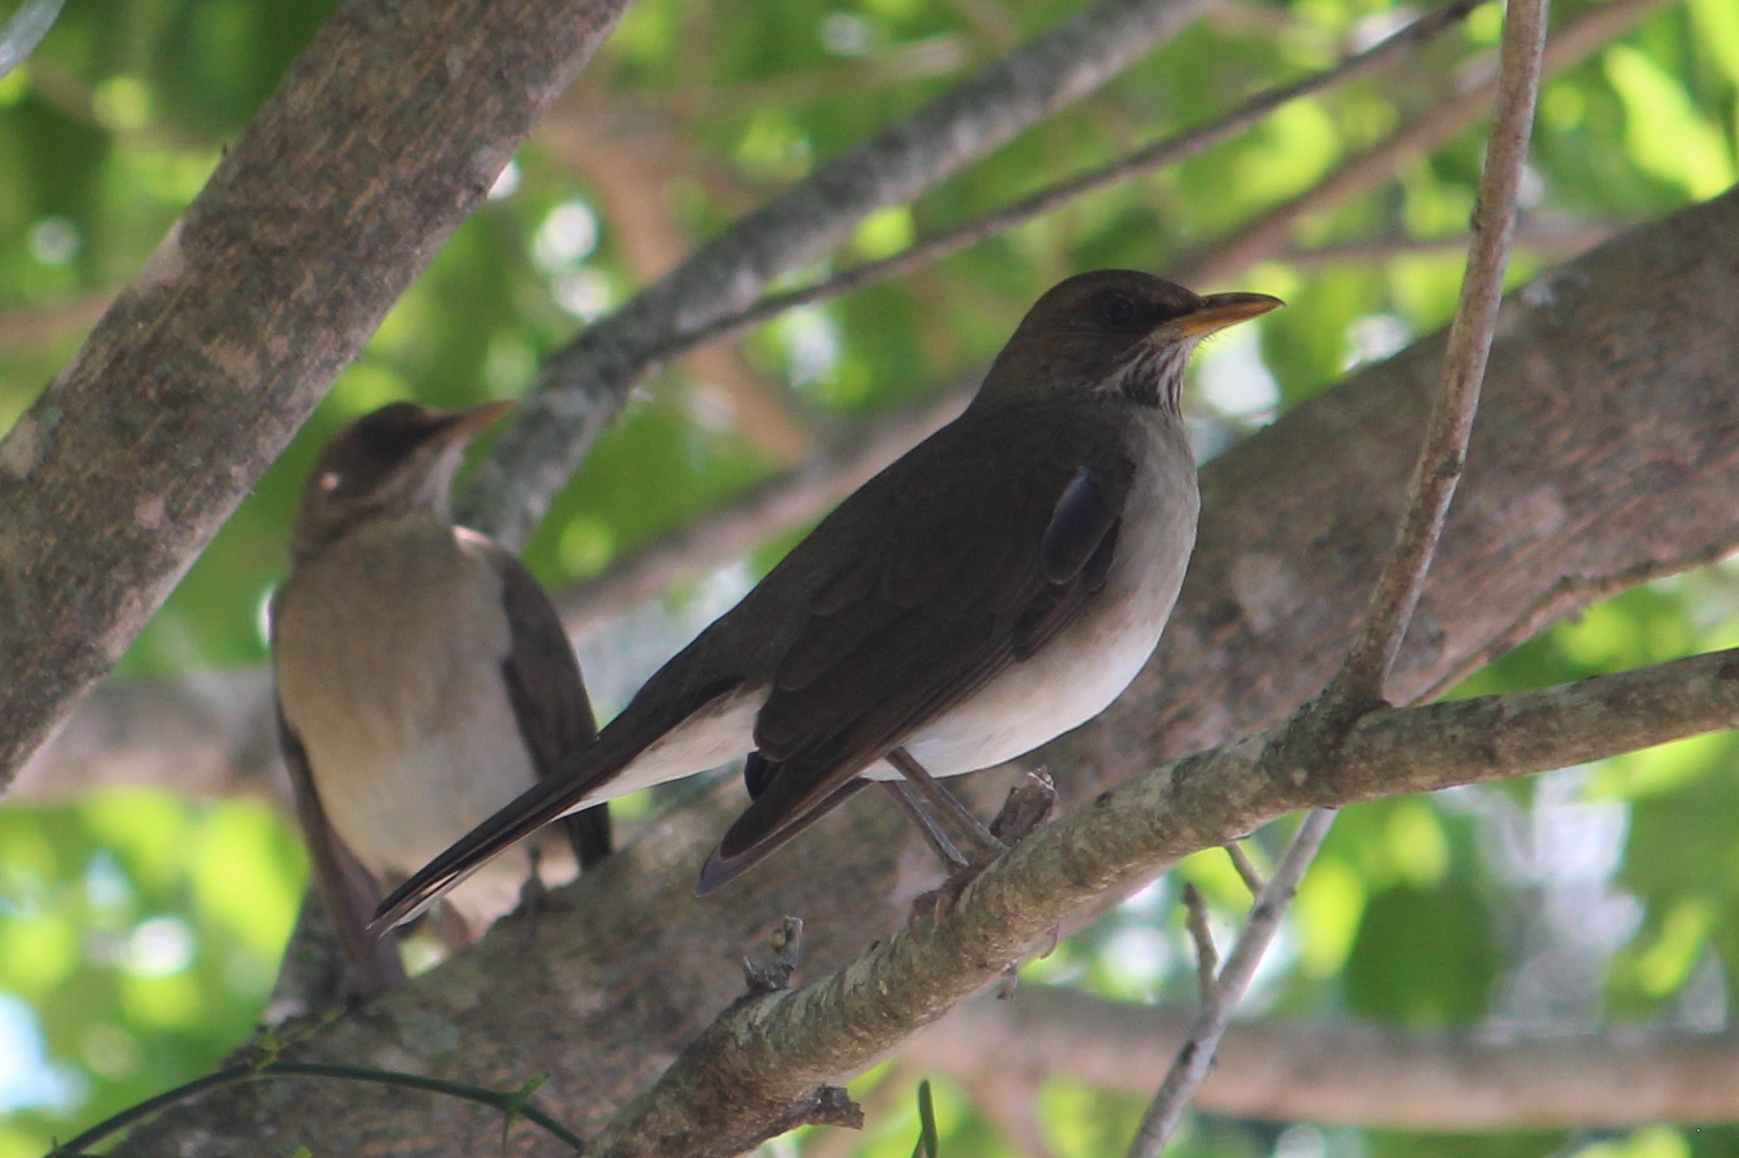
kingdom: Animalia
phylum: Chordata
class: Aves
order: Passeriformes
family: Turdidae
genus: Turdus
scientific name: Turdus amaurochalinus
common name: Creamy-bellied thrush
